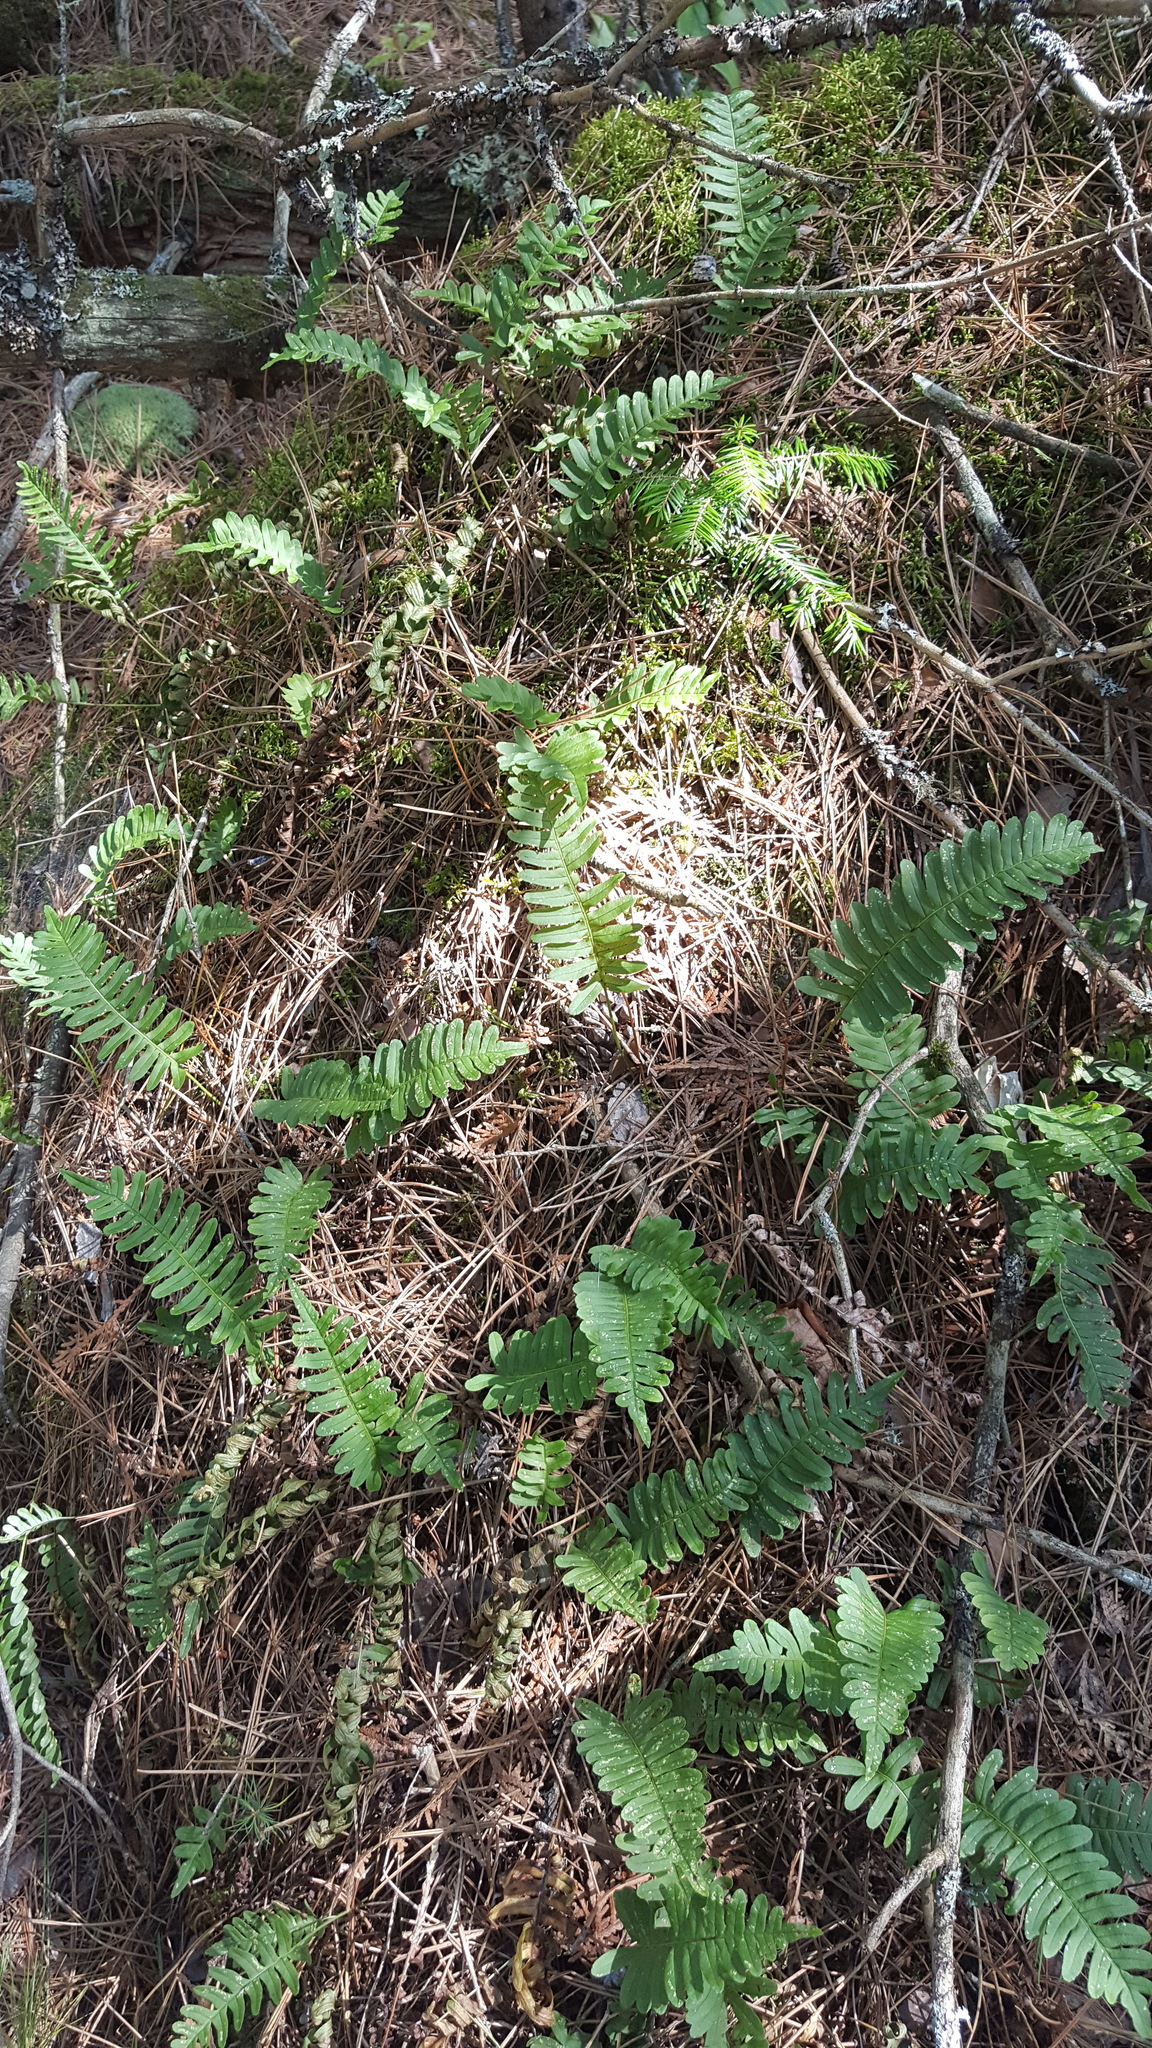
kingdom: Plantae
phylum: Tracheophyta
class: Polypodiopsida
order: Polypodiales
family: Polypodiaceae
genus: Polypodium
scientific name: Polypodium virginianum
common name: American wall fern
